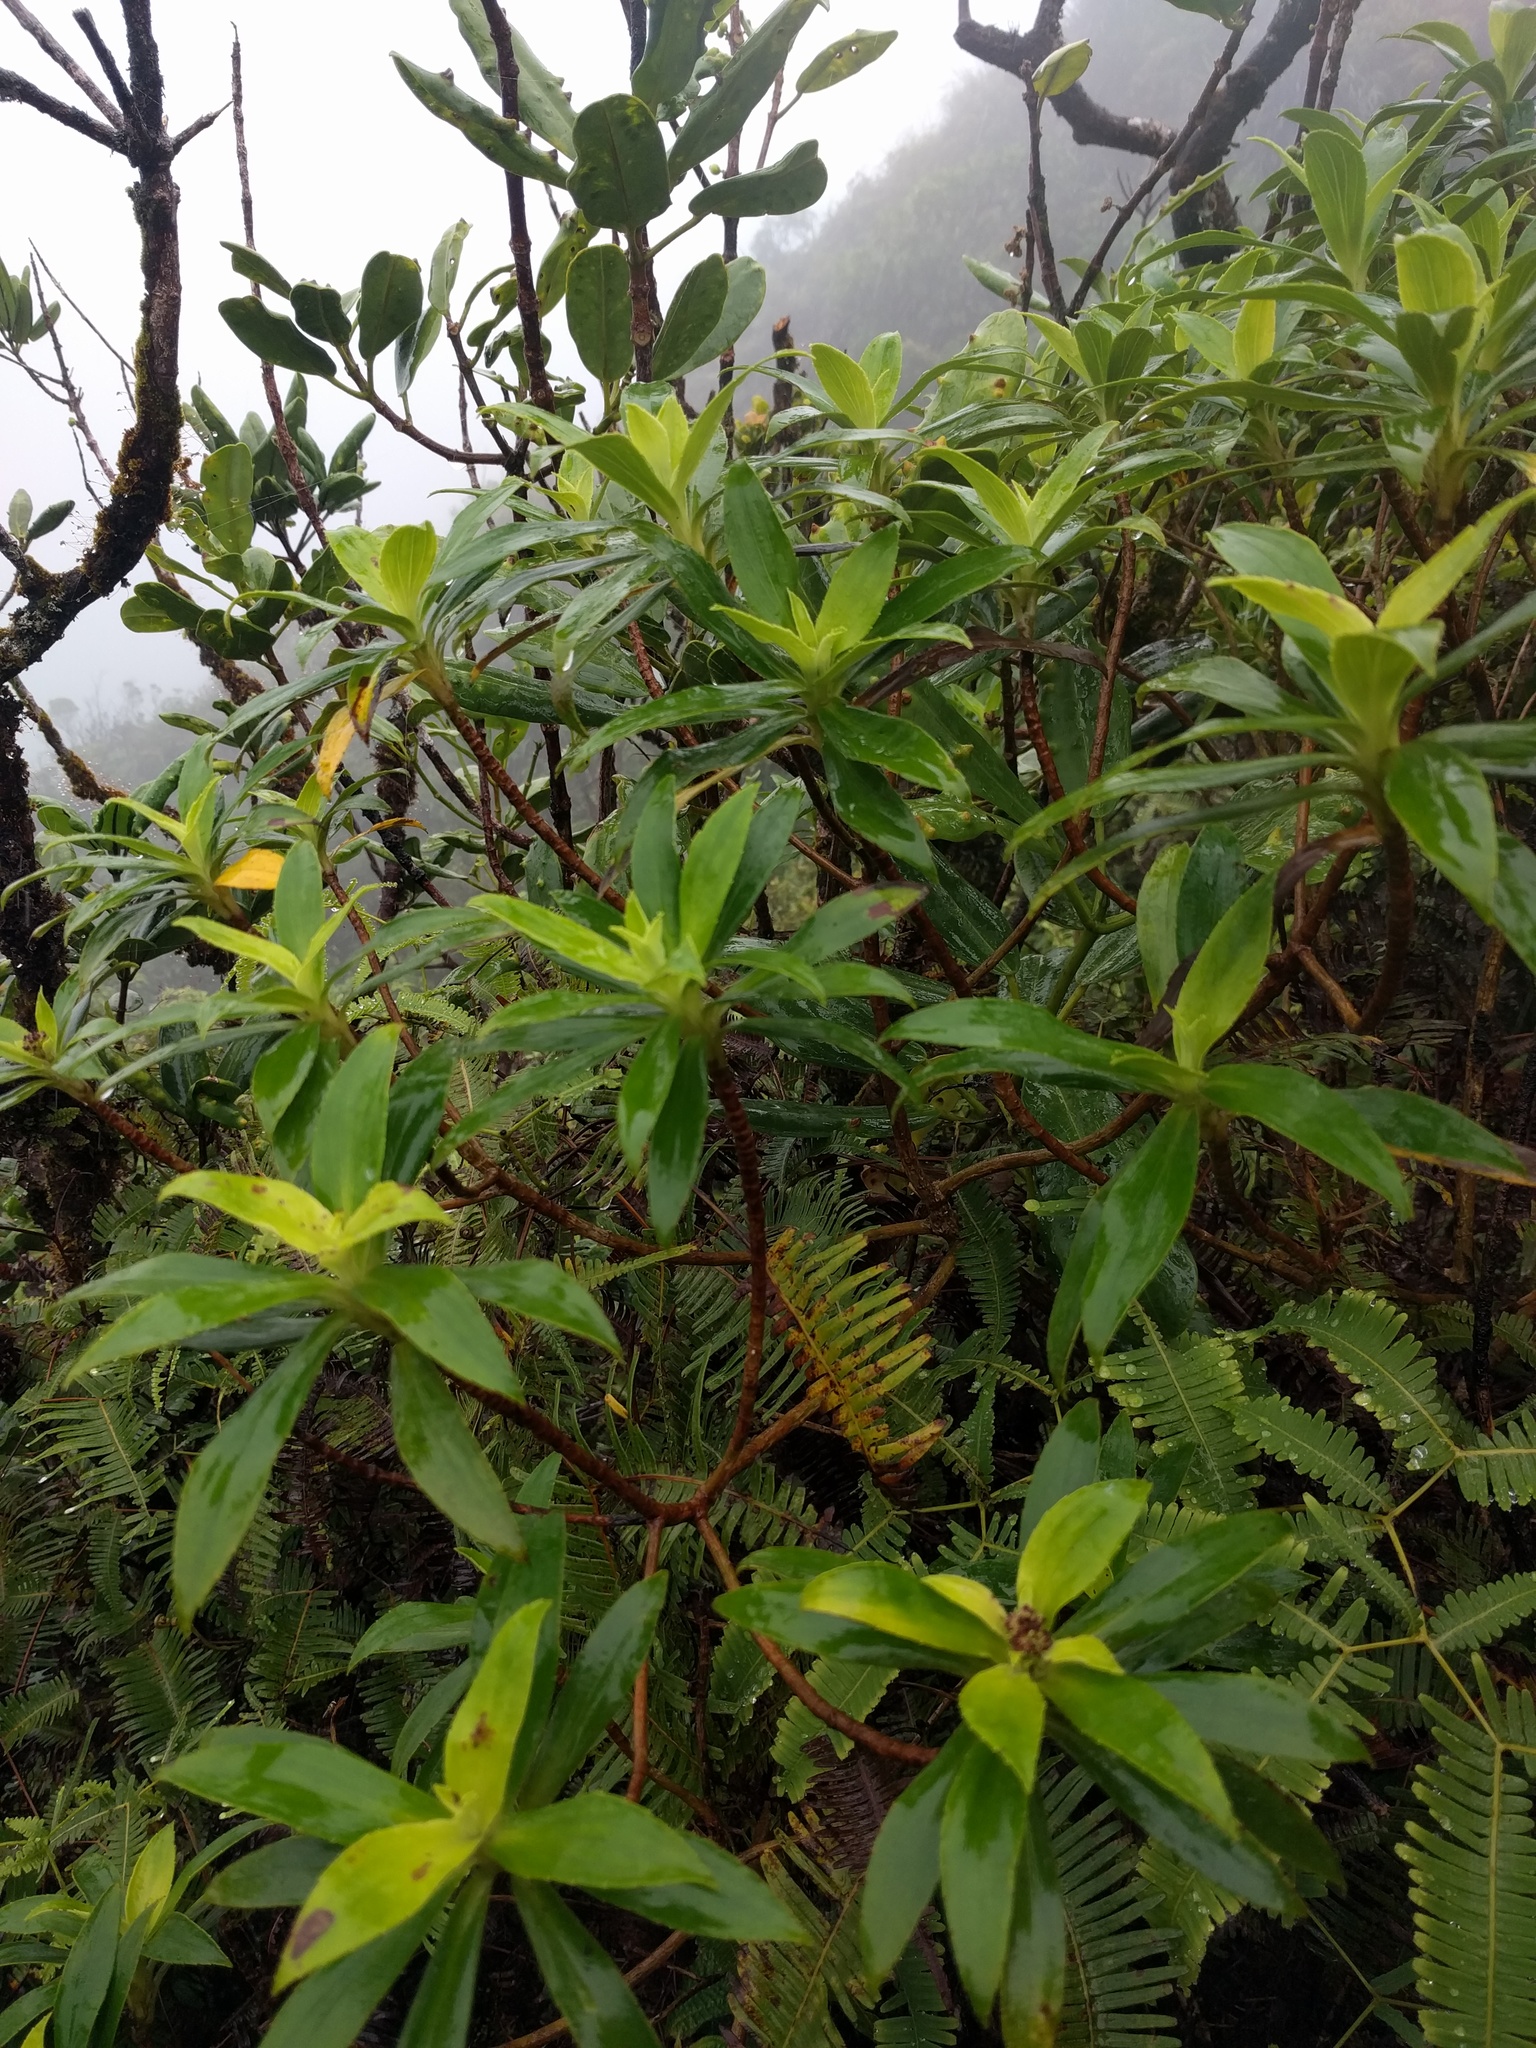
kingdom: Plantae
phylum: Tracheophyta
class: Magnoliopsida
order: Asterales
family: Asteraceae
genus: Dubautia
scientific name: Dubautia laxa
